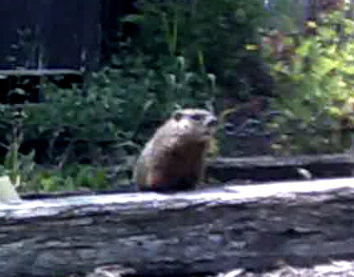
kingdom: Animalia
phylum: Chordata
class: Mammalia
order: Rodentia
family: Sciuridae
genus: Marmota
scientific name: Marmota monax
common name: Groundhog
